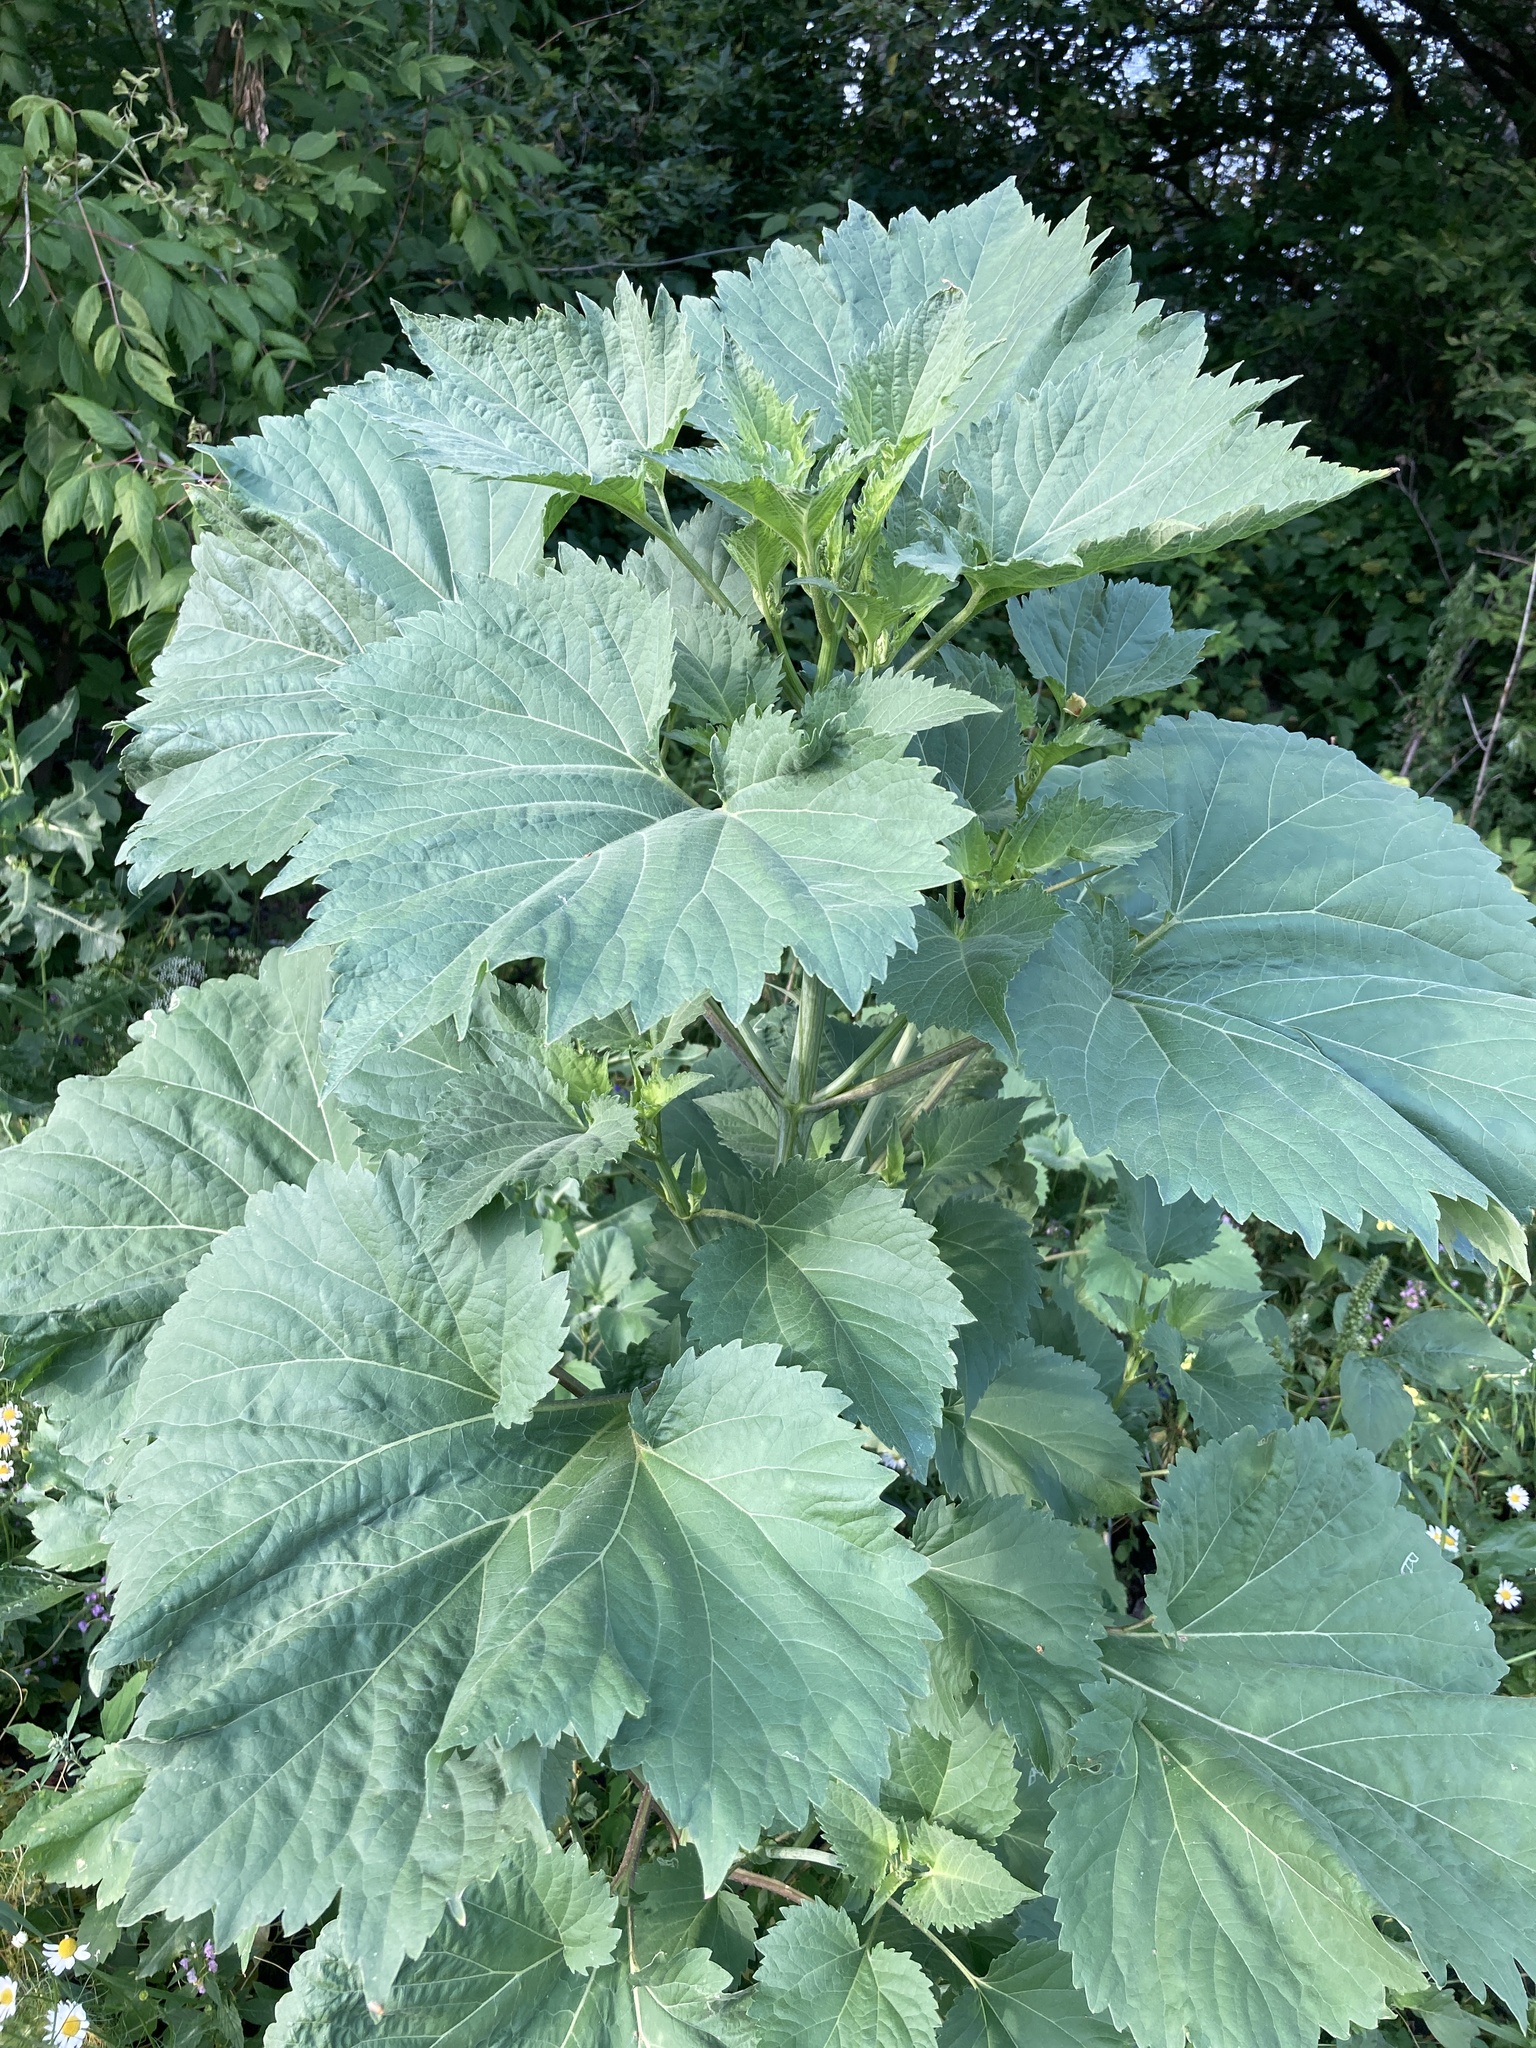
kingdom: Plantae
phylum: Tracheophyta
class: Magnoliopsida
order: Asterales
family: Asteraceae
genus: Cyclachaena
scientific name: Cyclachaena xanthiifolia
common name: Giant sumpweed
